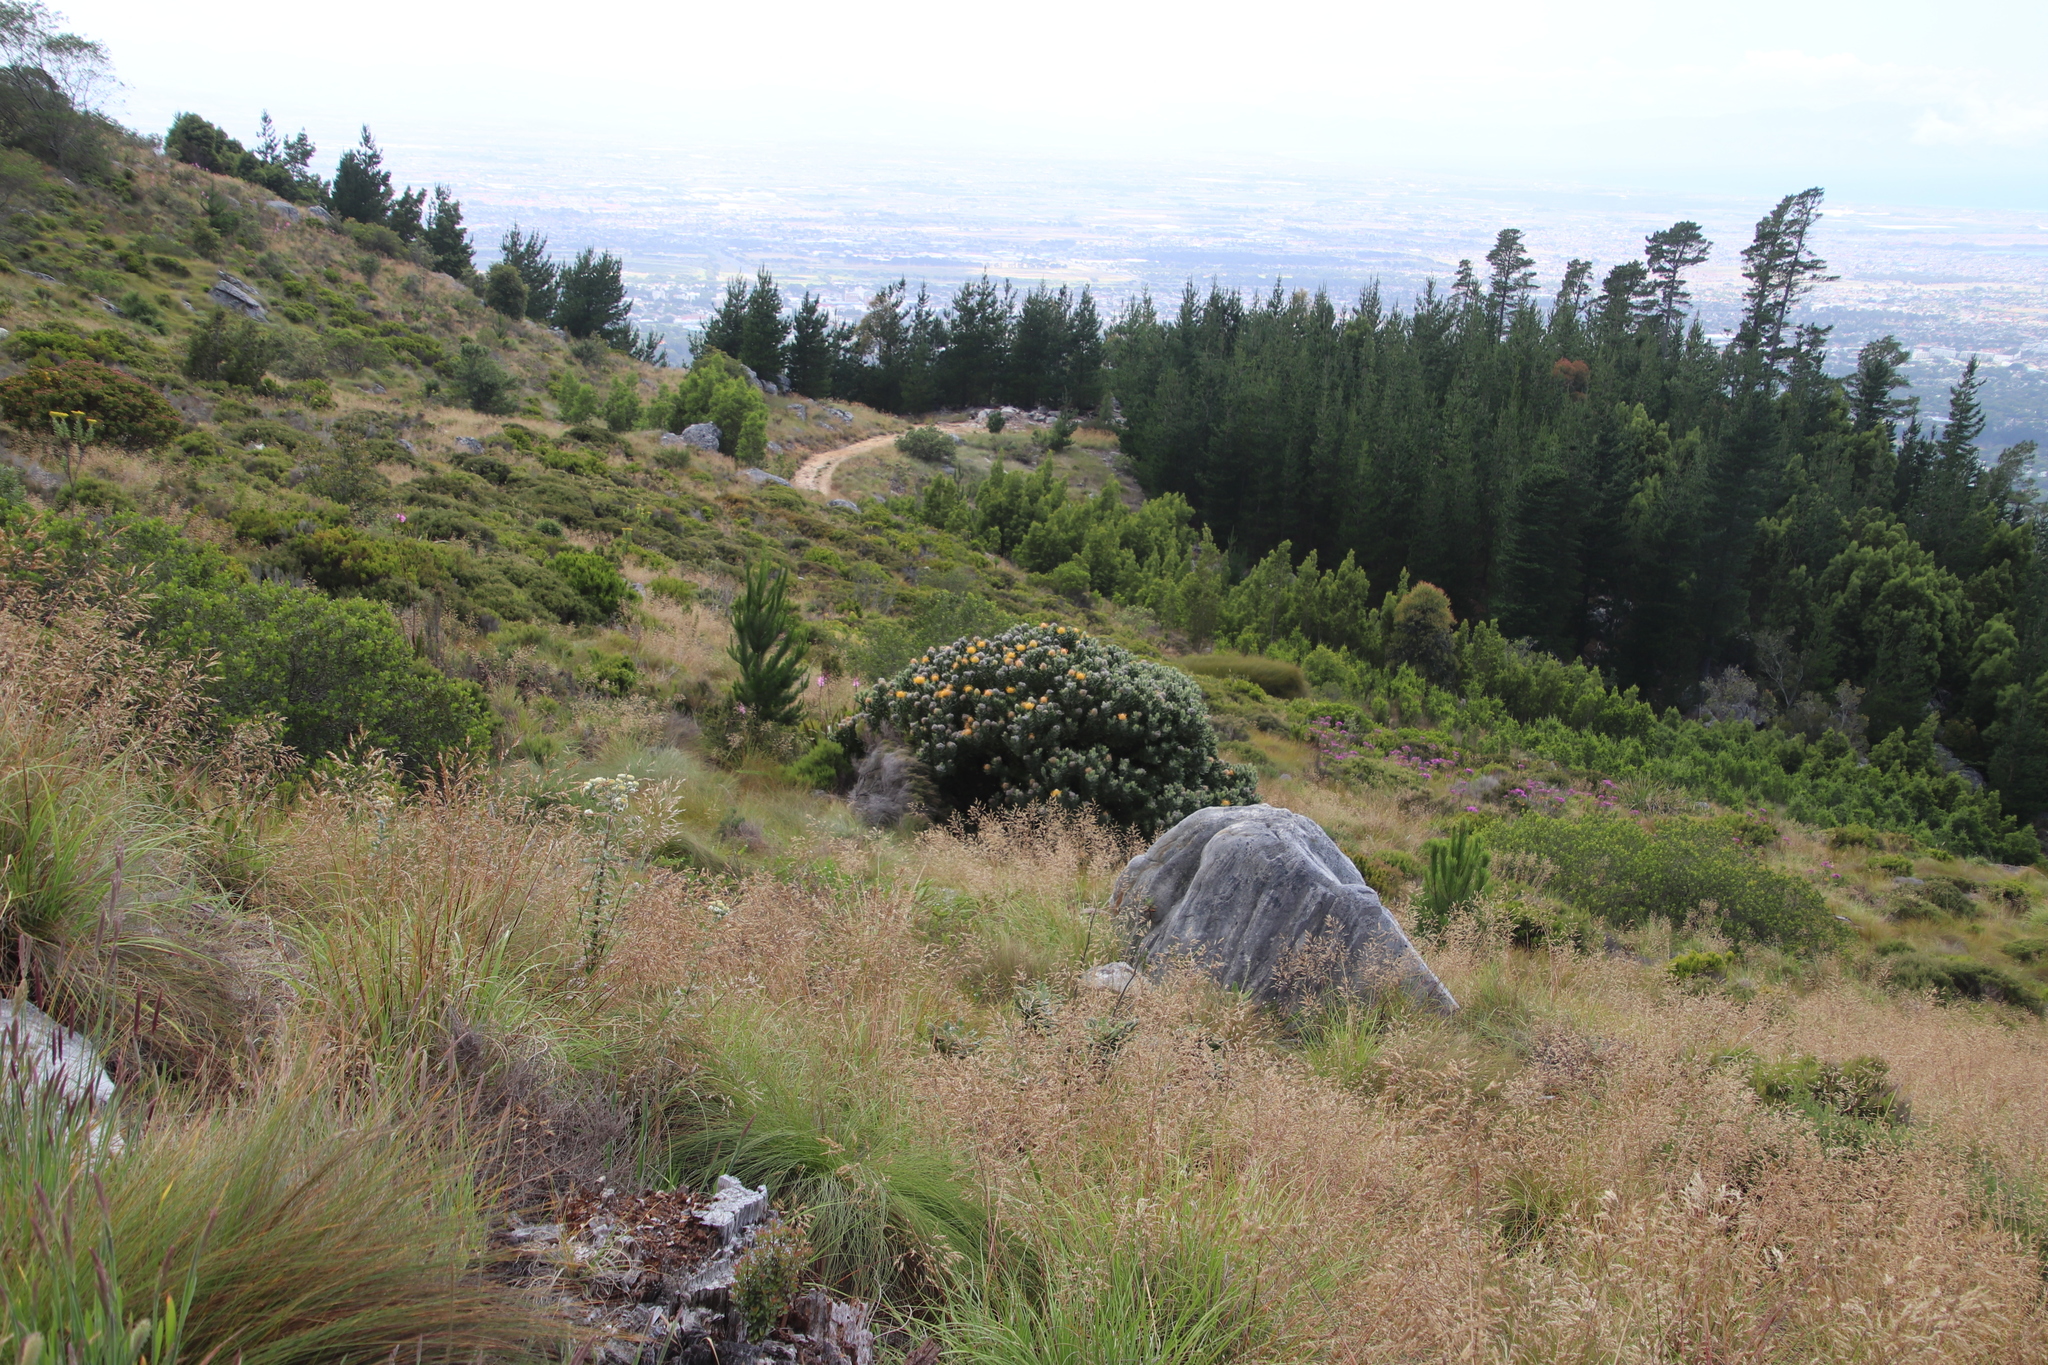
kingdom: Plantae
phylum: Tracheophyta
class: Magnoliopsida
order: Proteales
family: Proteaceae
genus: Leucospermum
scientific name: Leucospermum conocarpodendron
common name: Tree pincushion
